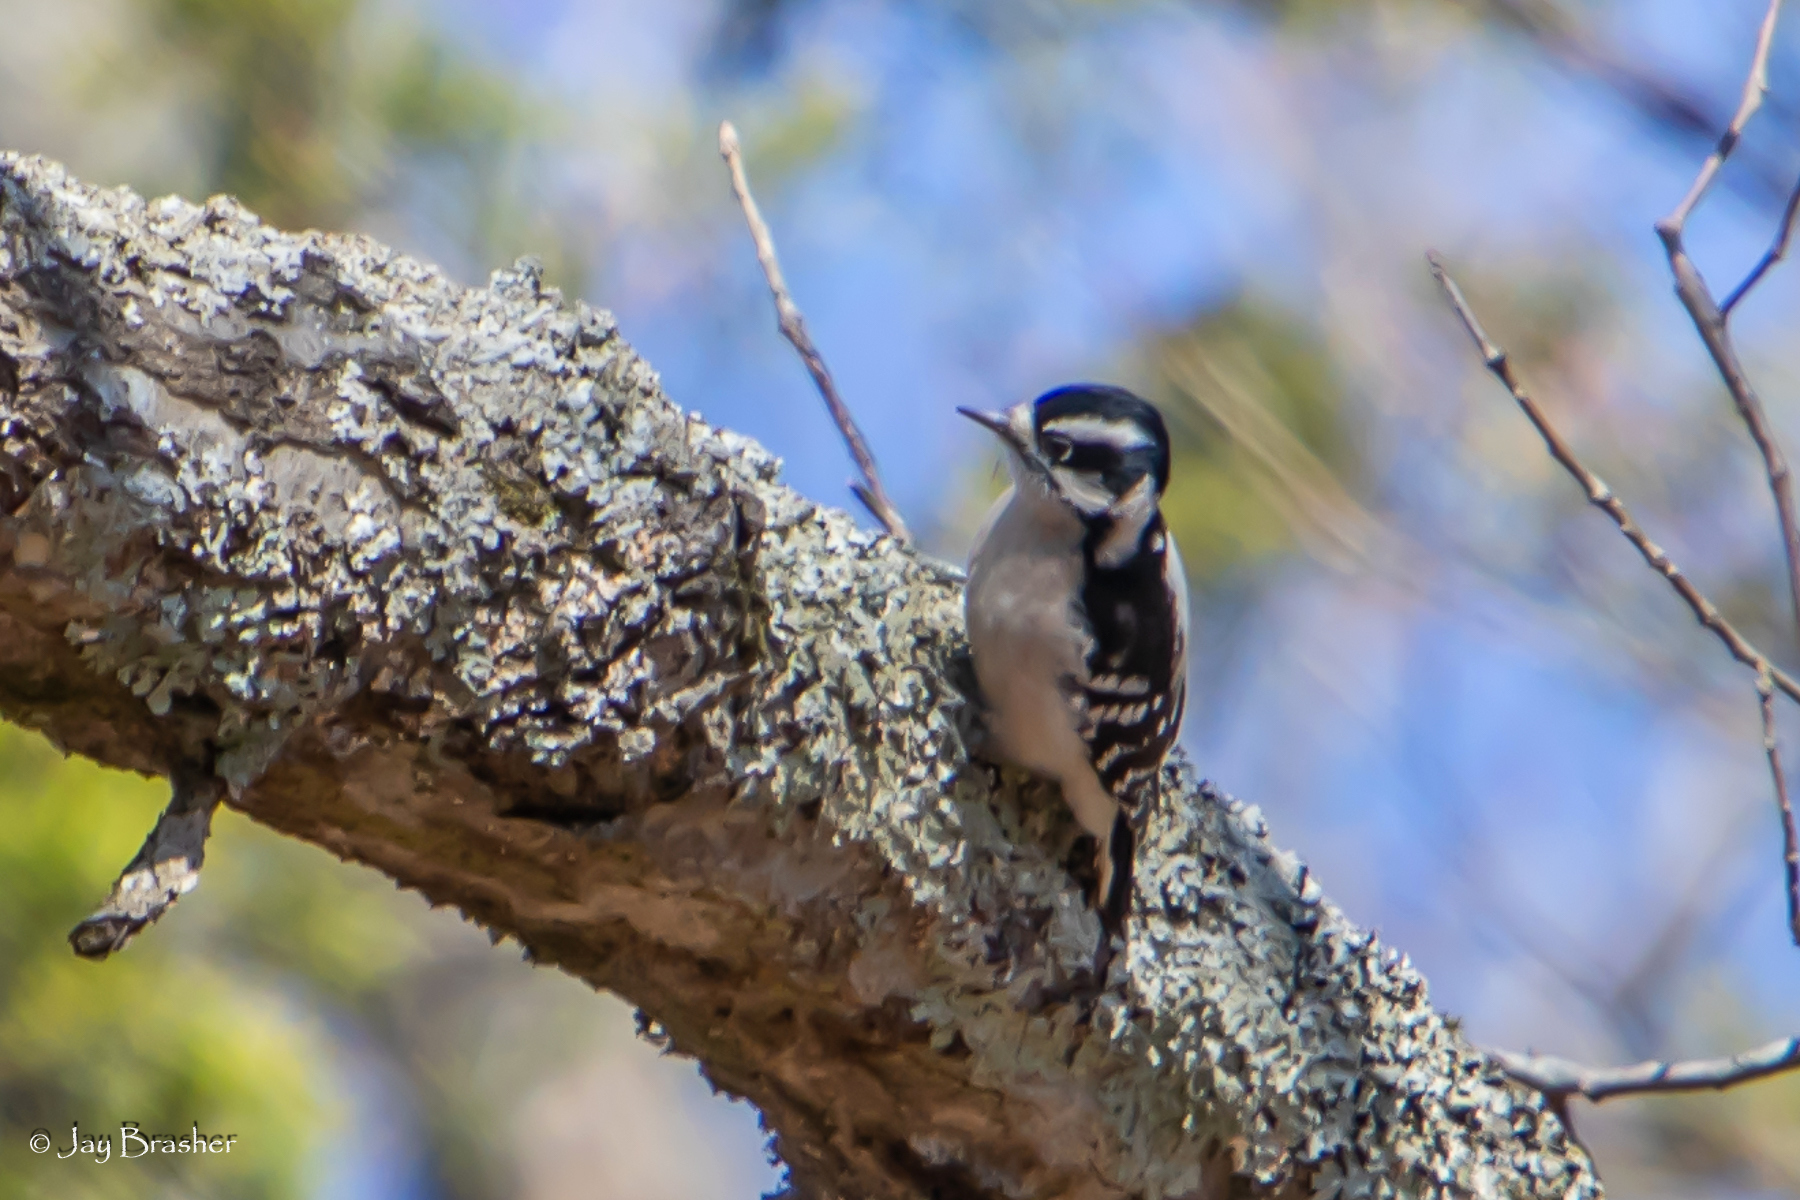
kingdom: Animalia
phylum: Chordata
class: Aves
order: Piciformes
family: Picidae
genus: Dryobates
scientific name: Dryobates pubescens
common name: Downy woodpecker
